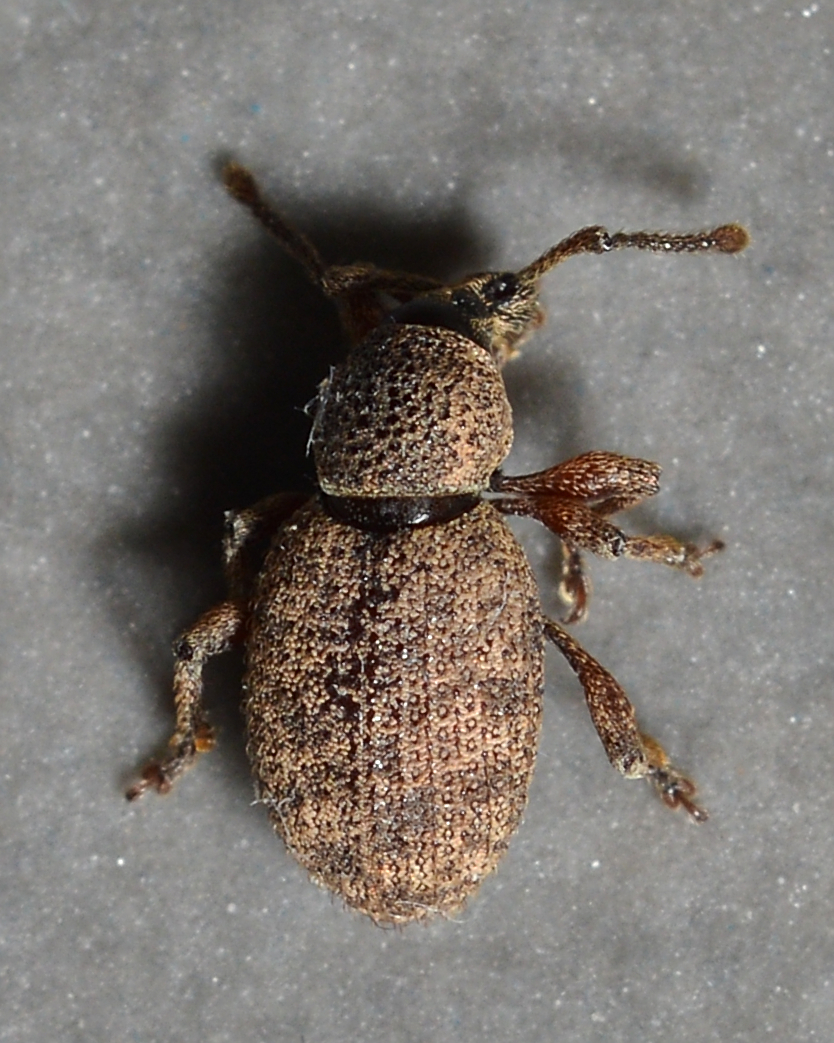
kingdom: Animalia
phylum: Arthropoda
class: Insecta
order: Coleoptera
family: Curculionidae
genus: Otiorhynchus
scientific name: Otiorhynchus singularis
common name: Clay-coloured weevil
